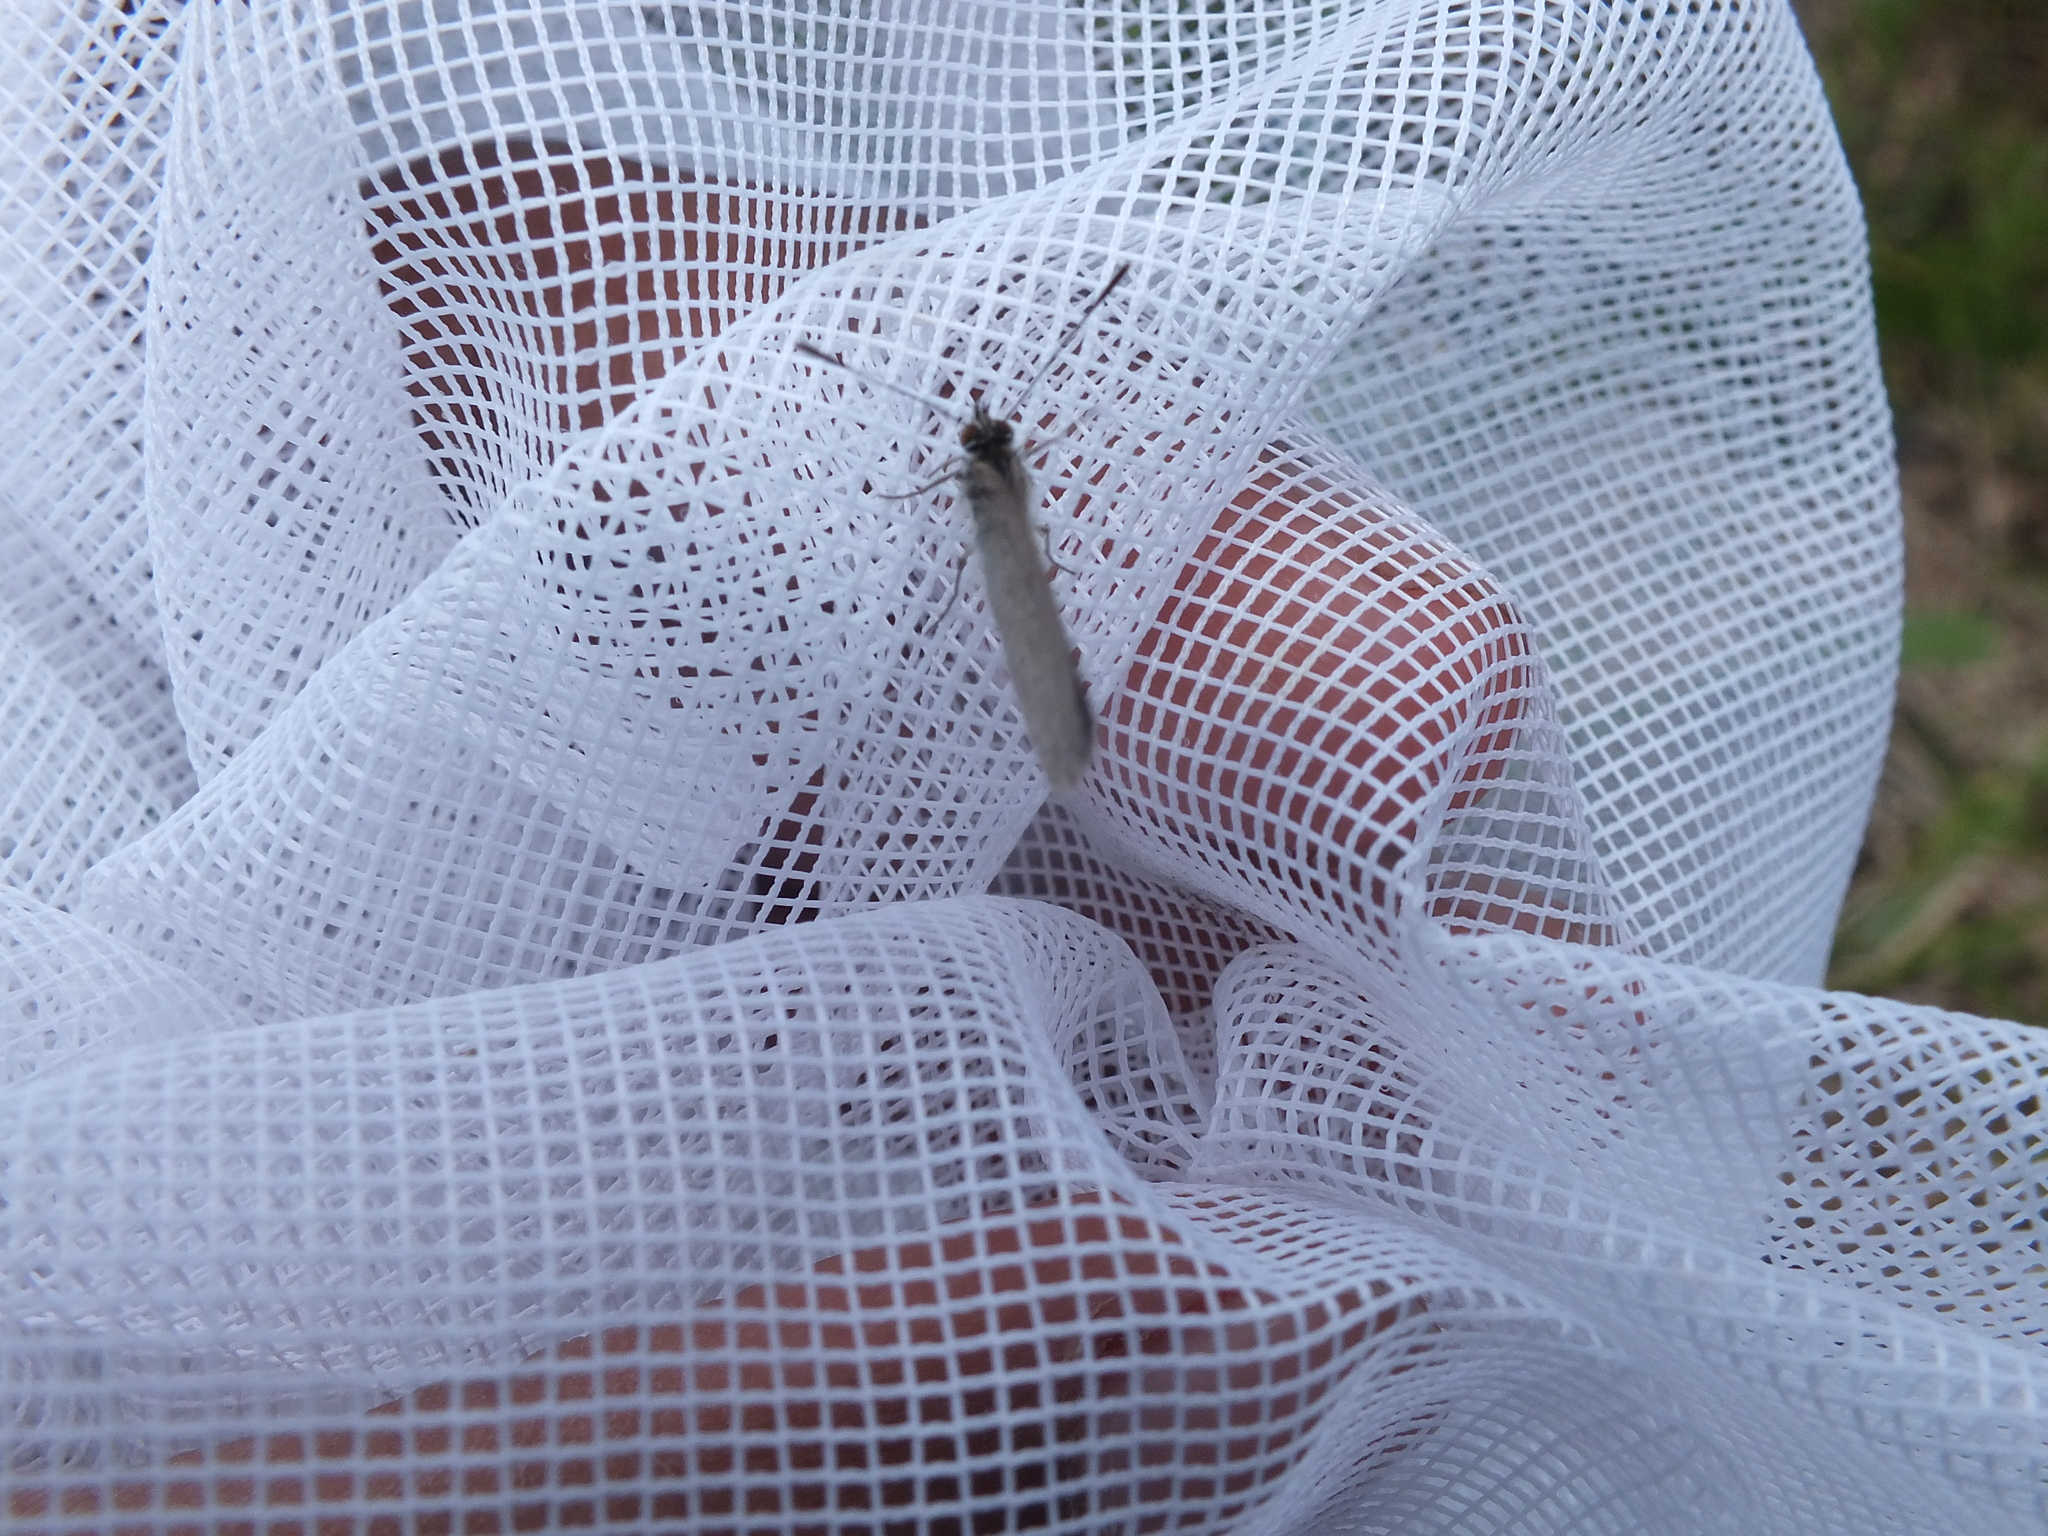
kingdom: Animalia
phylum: Arthropoda
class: Insecta
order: Lepidoptera
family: Lycaenidae
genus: Zizina
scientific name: Zizina otis
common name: Lesser grass blue
